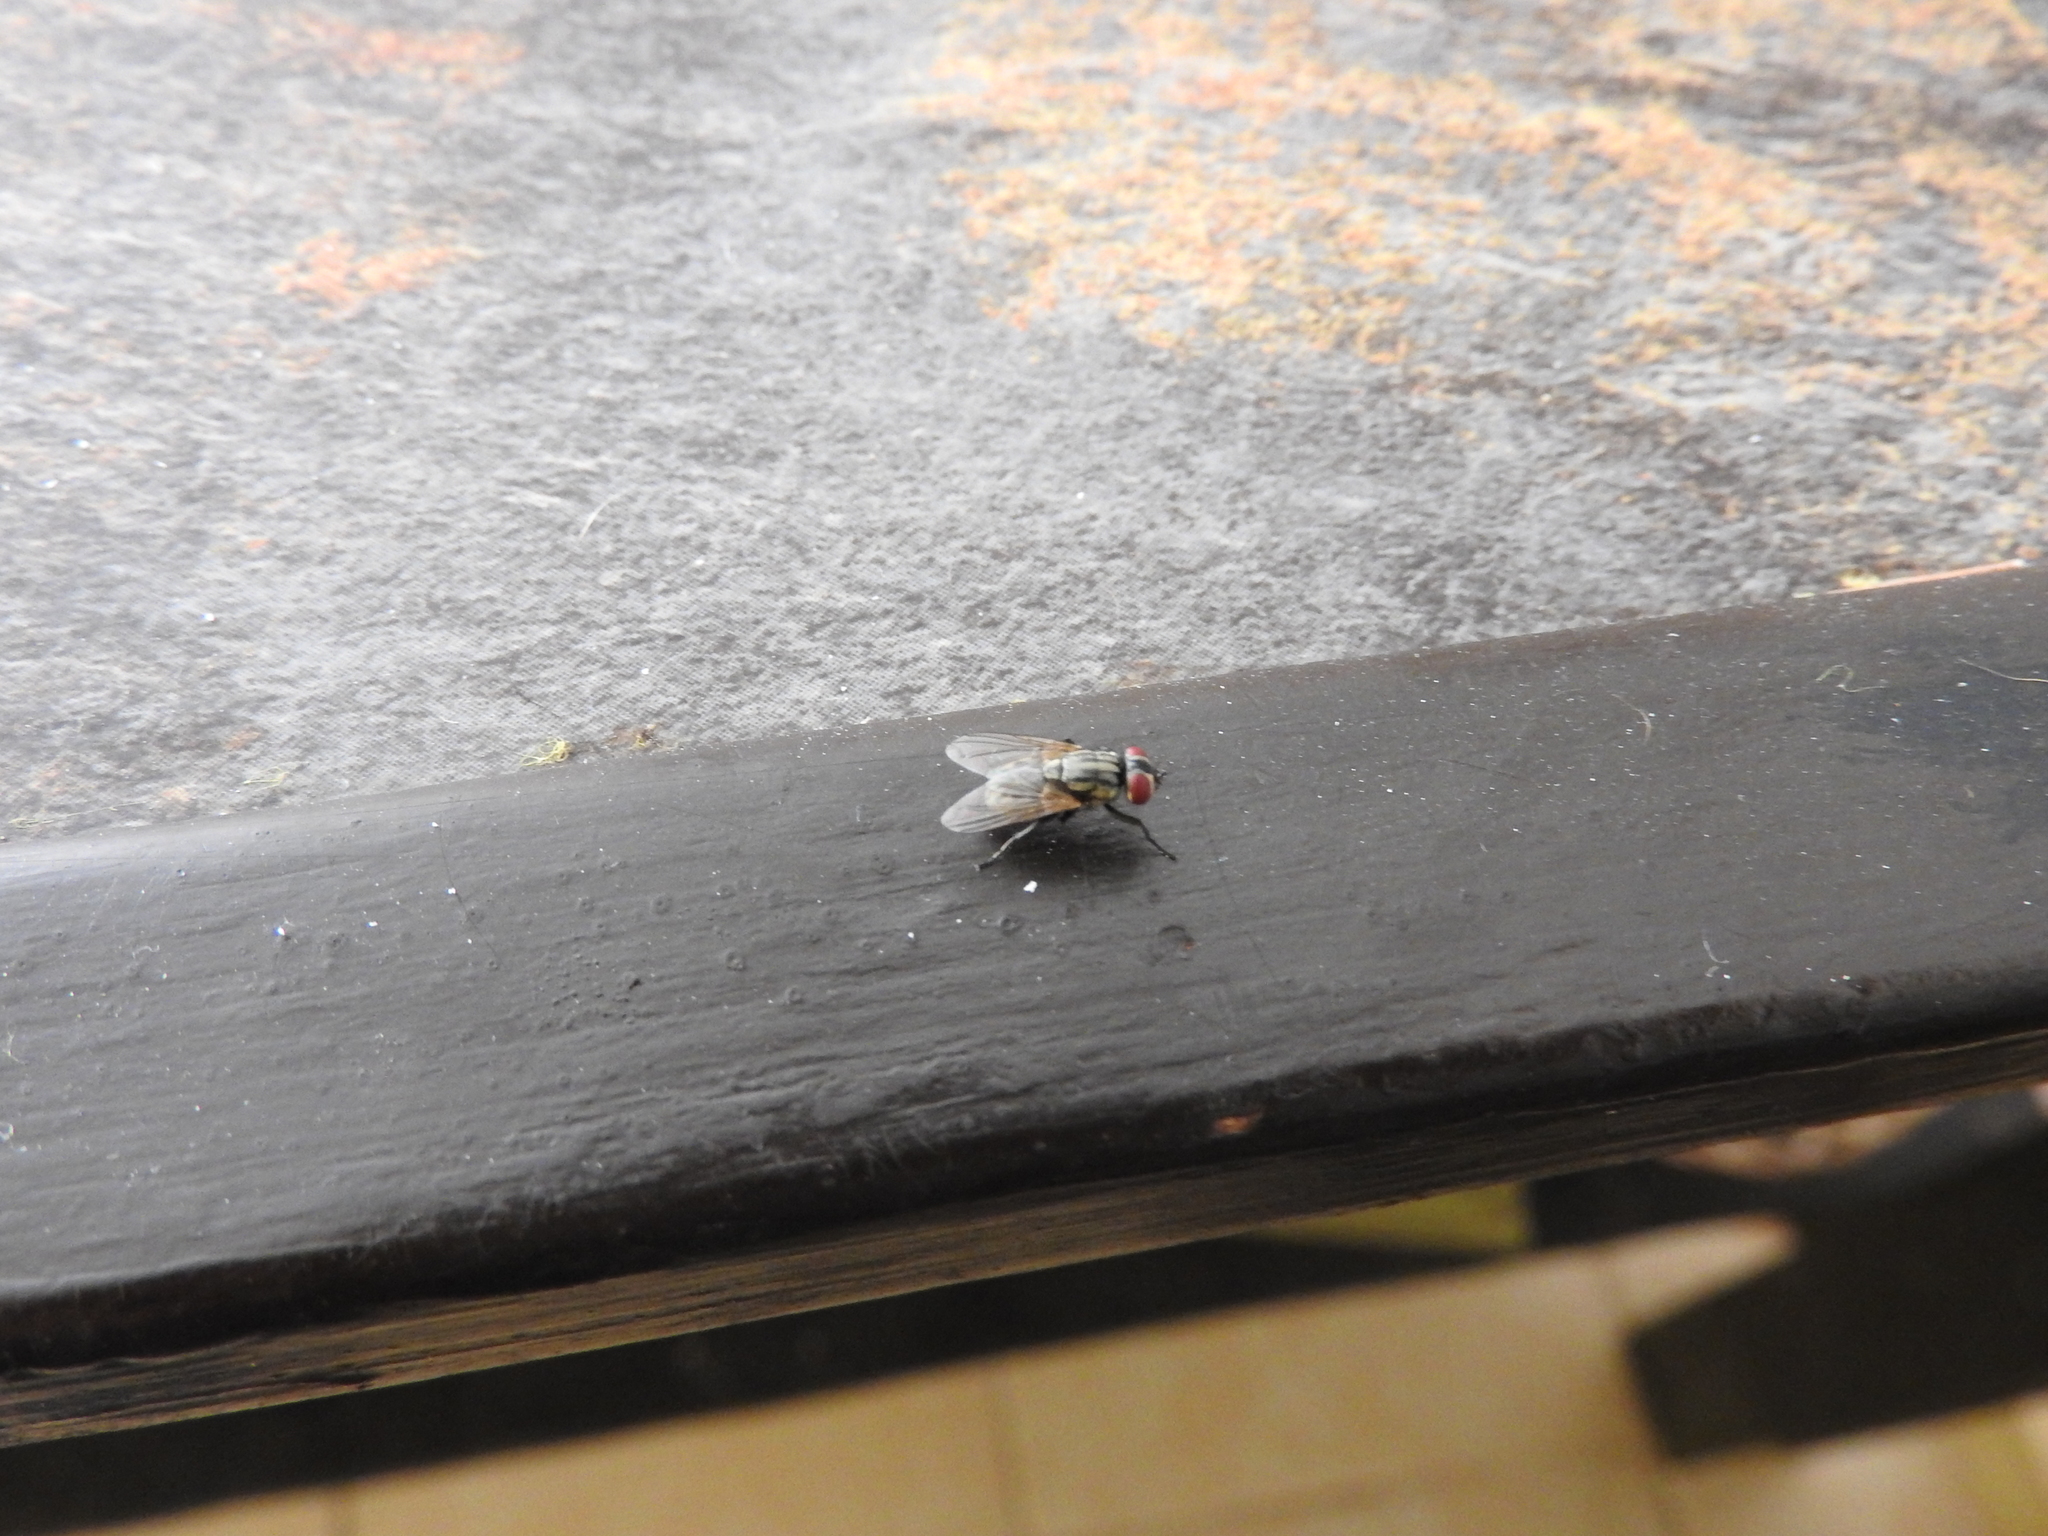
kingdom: Animalia
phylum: Arthropoda
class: Insecta
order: Diptera
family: Muscidae
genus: Musca
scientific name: Musca domestica
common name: House fly
